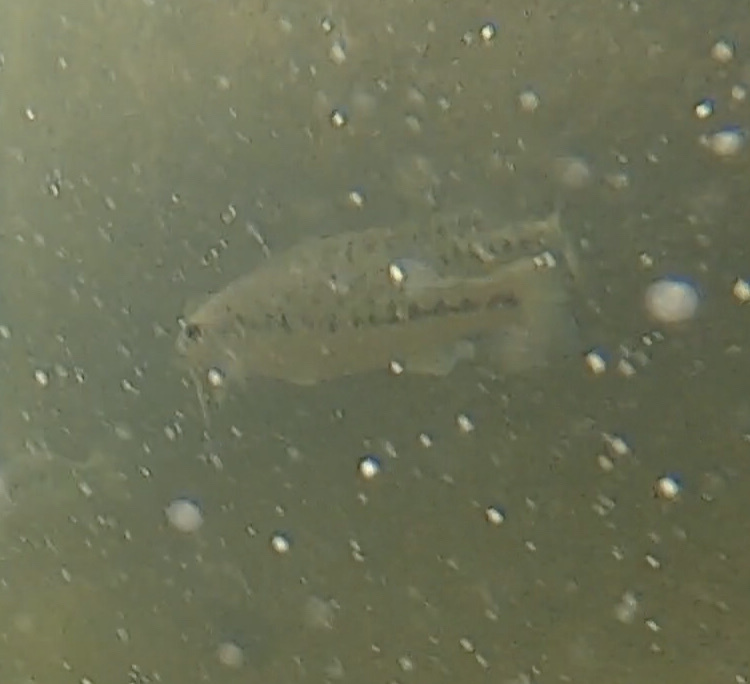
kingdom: Animalia
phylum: Chordata
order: Perciformes
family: Centrarchidae
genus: Micropterus
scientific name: Micropterus treculii
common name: Guadalupe bass
